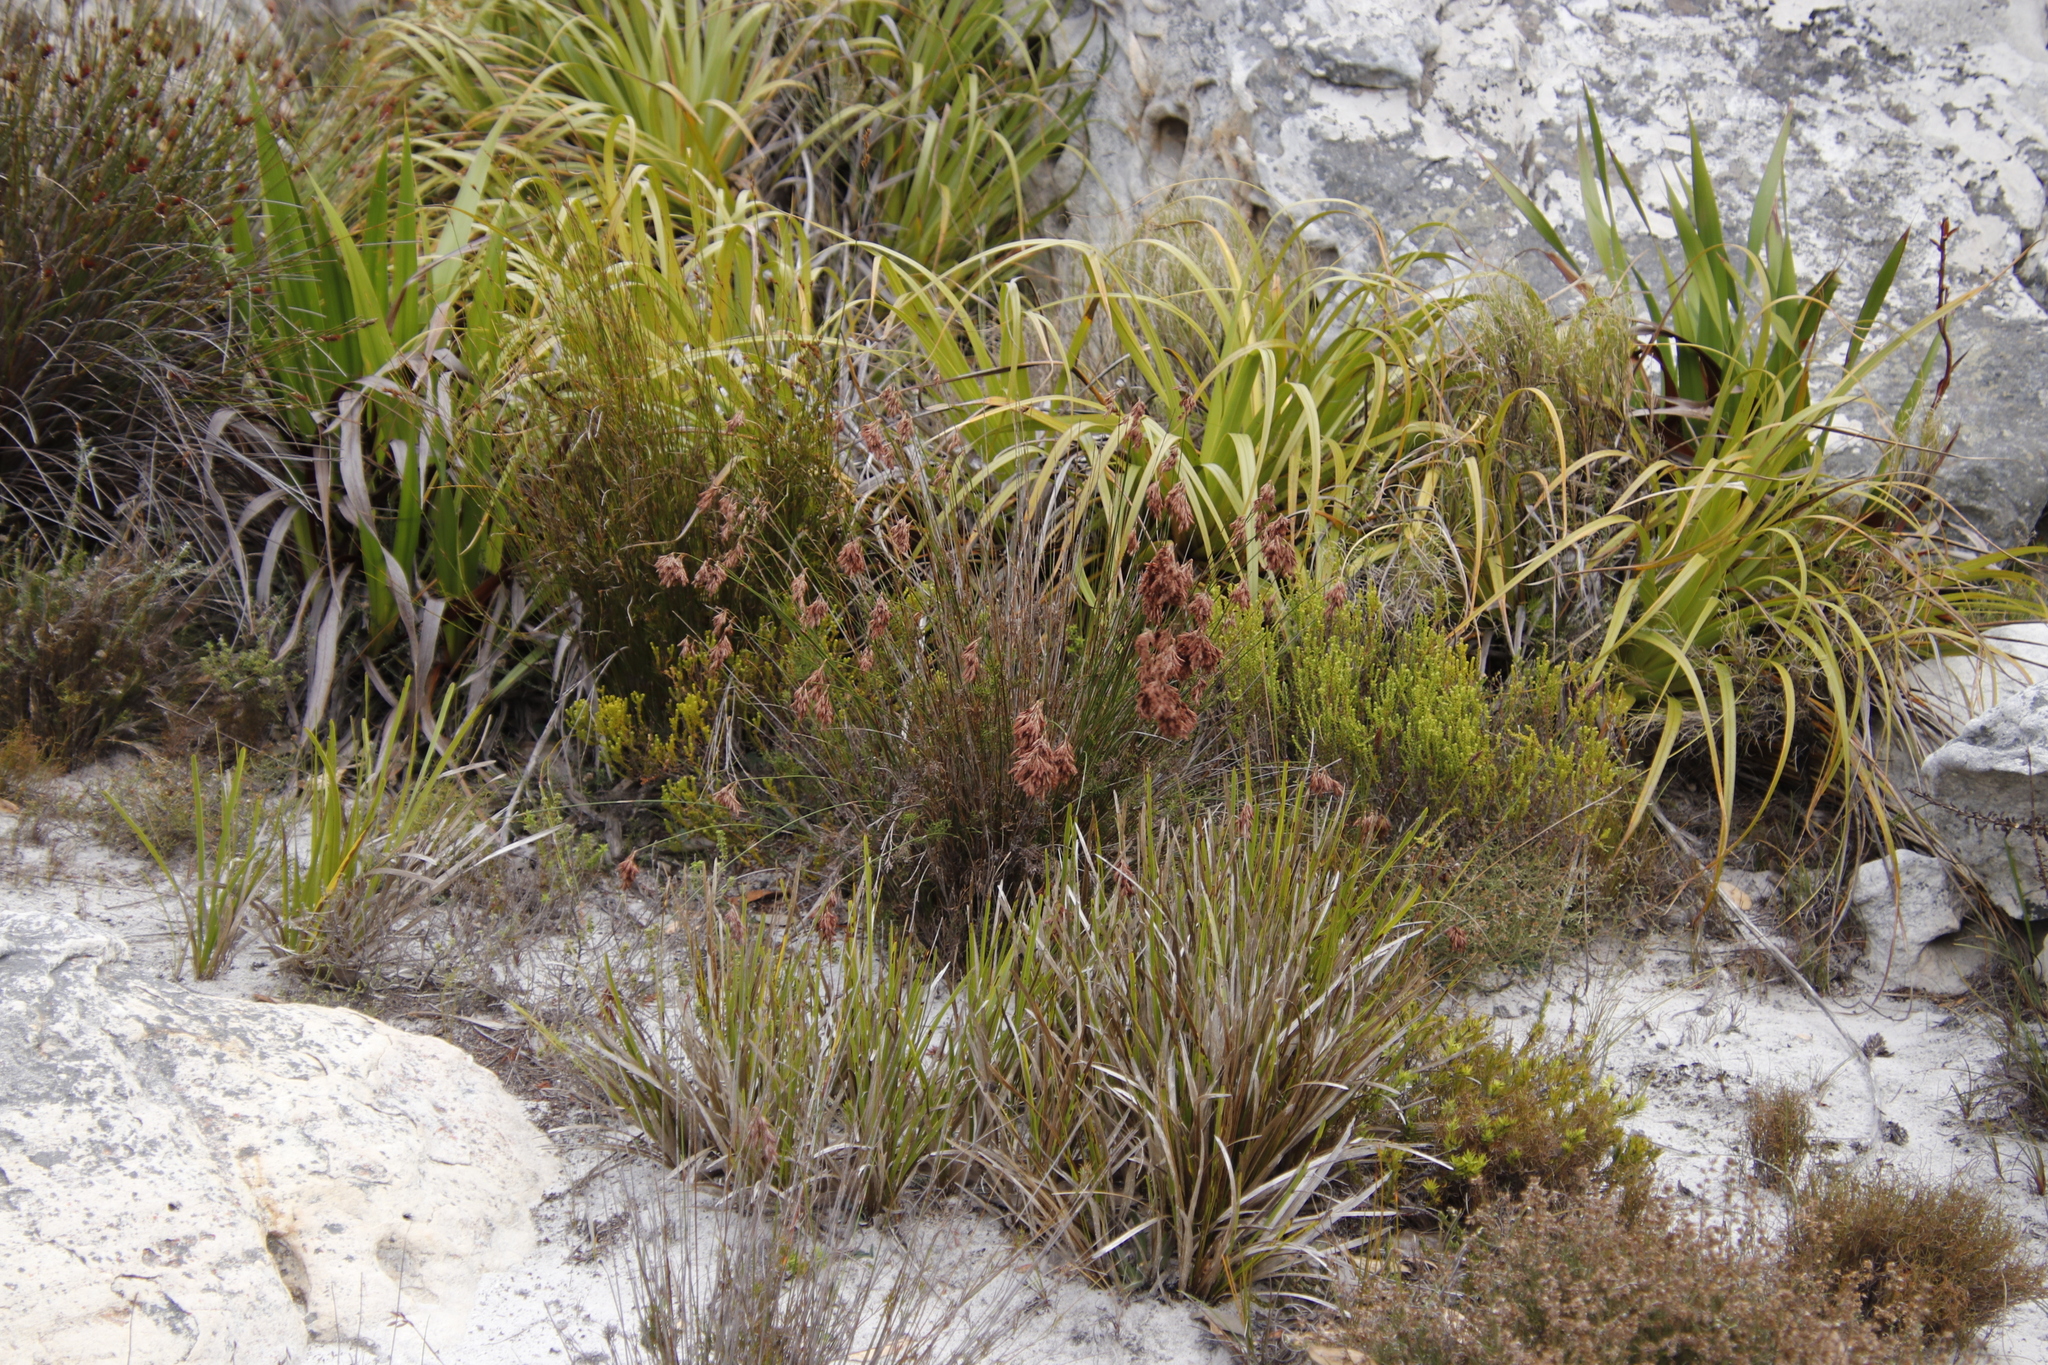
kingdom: Plantae
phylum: Tracheophyta
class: Liliopsida
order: Poales
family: Cyperaceae
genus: Tetraria
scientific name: Tetraria thermalis
